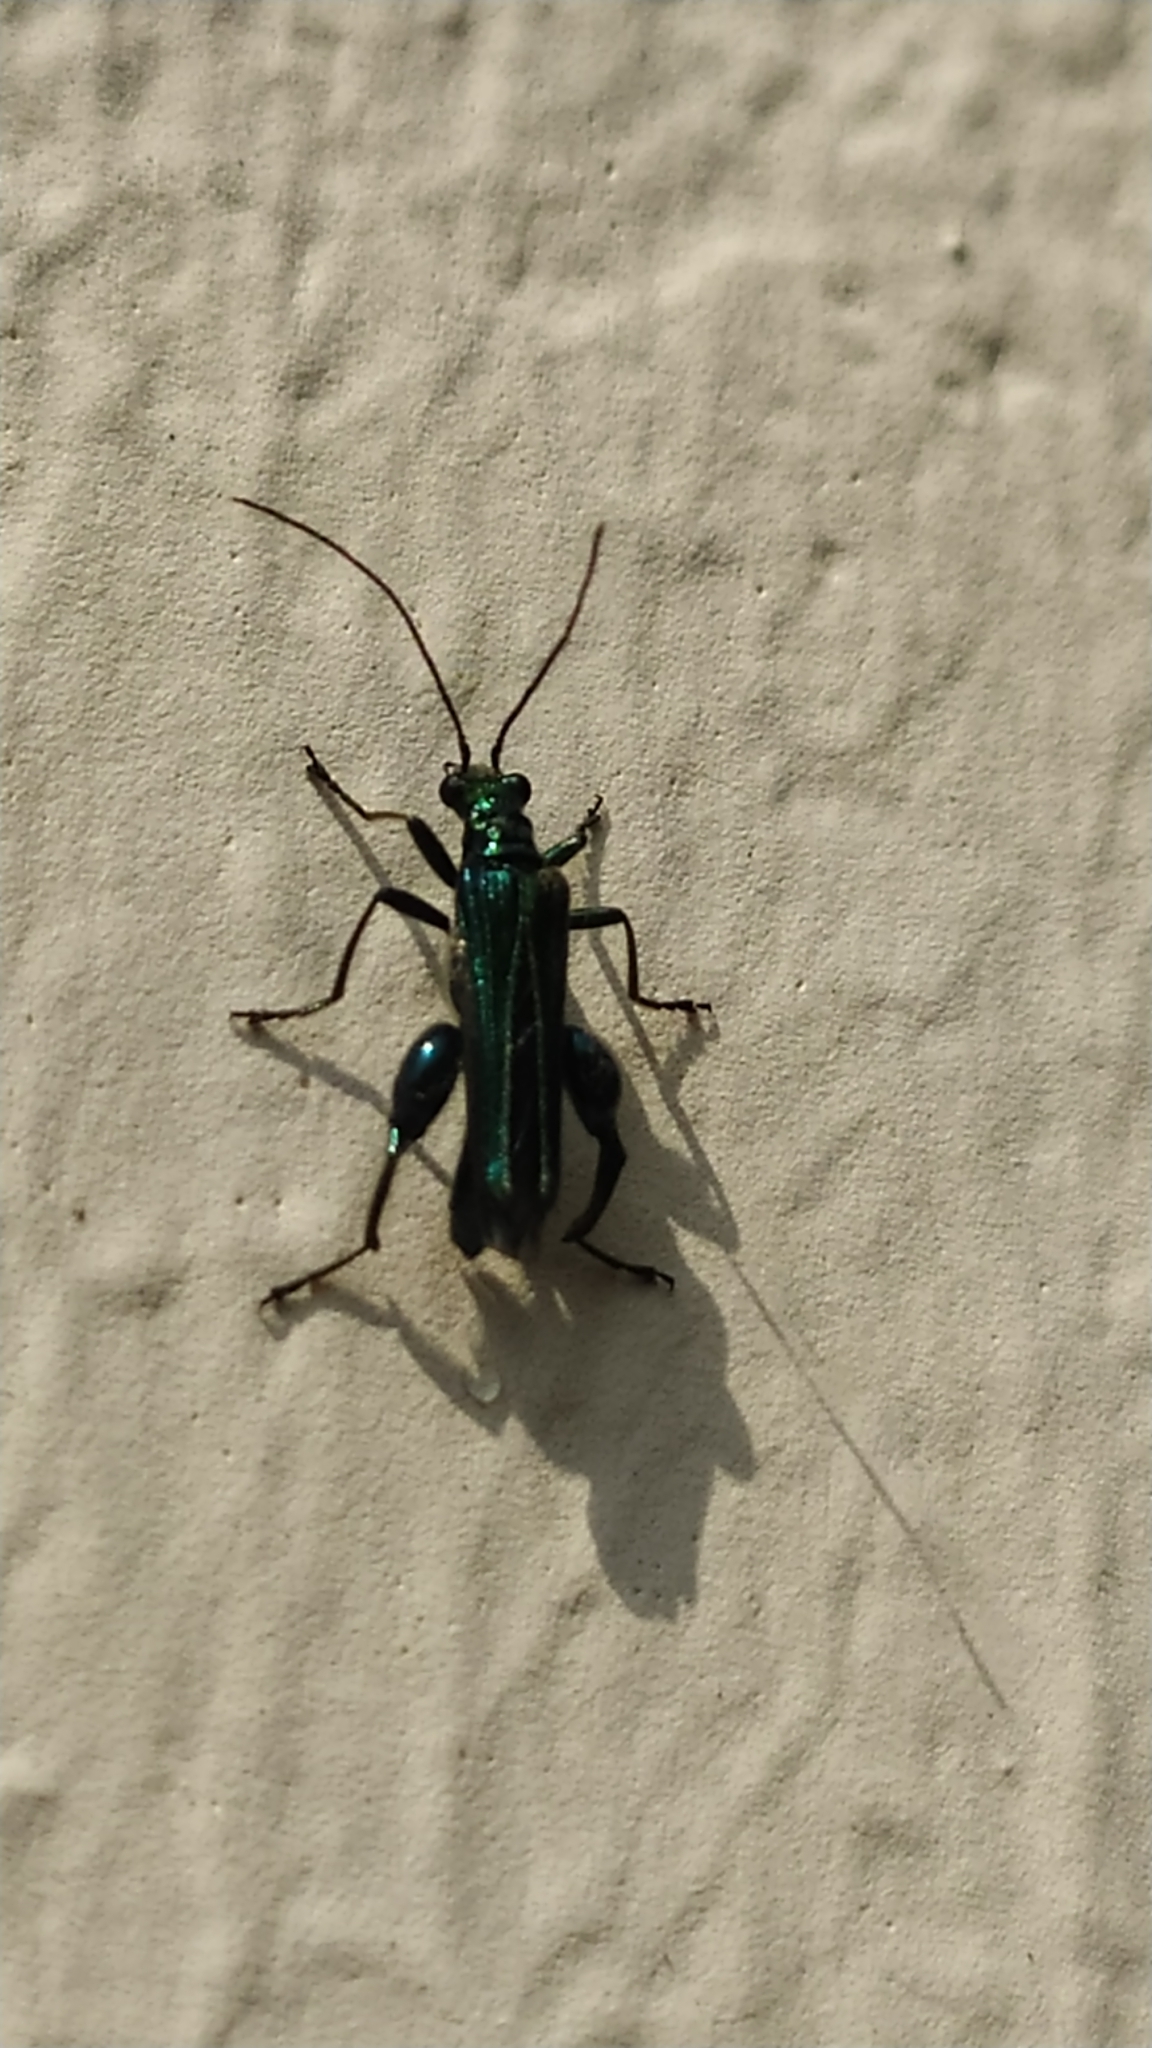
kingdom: Animalia
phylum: Arthropoda
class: Insecta
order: Coleoptera
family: Oedemeridae
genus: Oedemera
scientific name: Oedemera nobilis
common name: Swollen-thighed beetle
